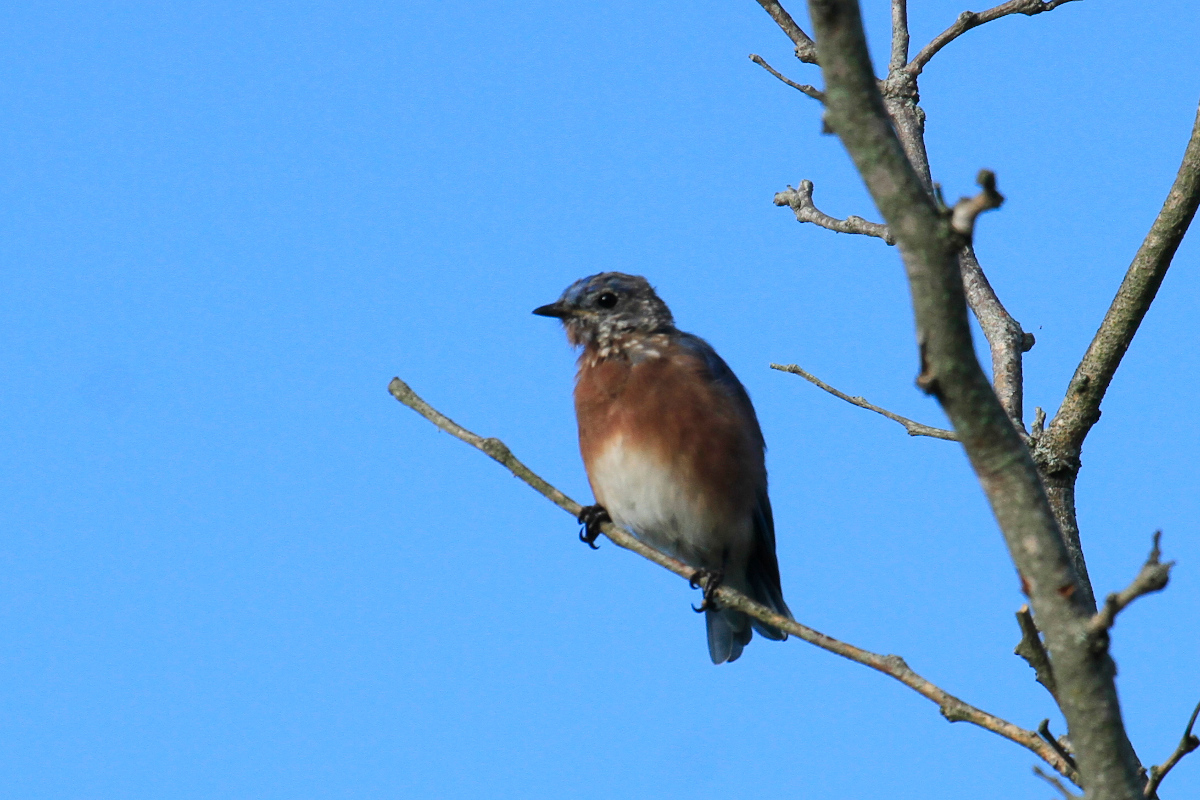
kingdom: Animalia
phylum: Chordata
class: Aves
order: Passeriformes
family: Turdidae
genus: Sialia
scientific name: Sialia sialis
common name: Eastern bluebird
